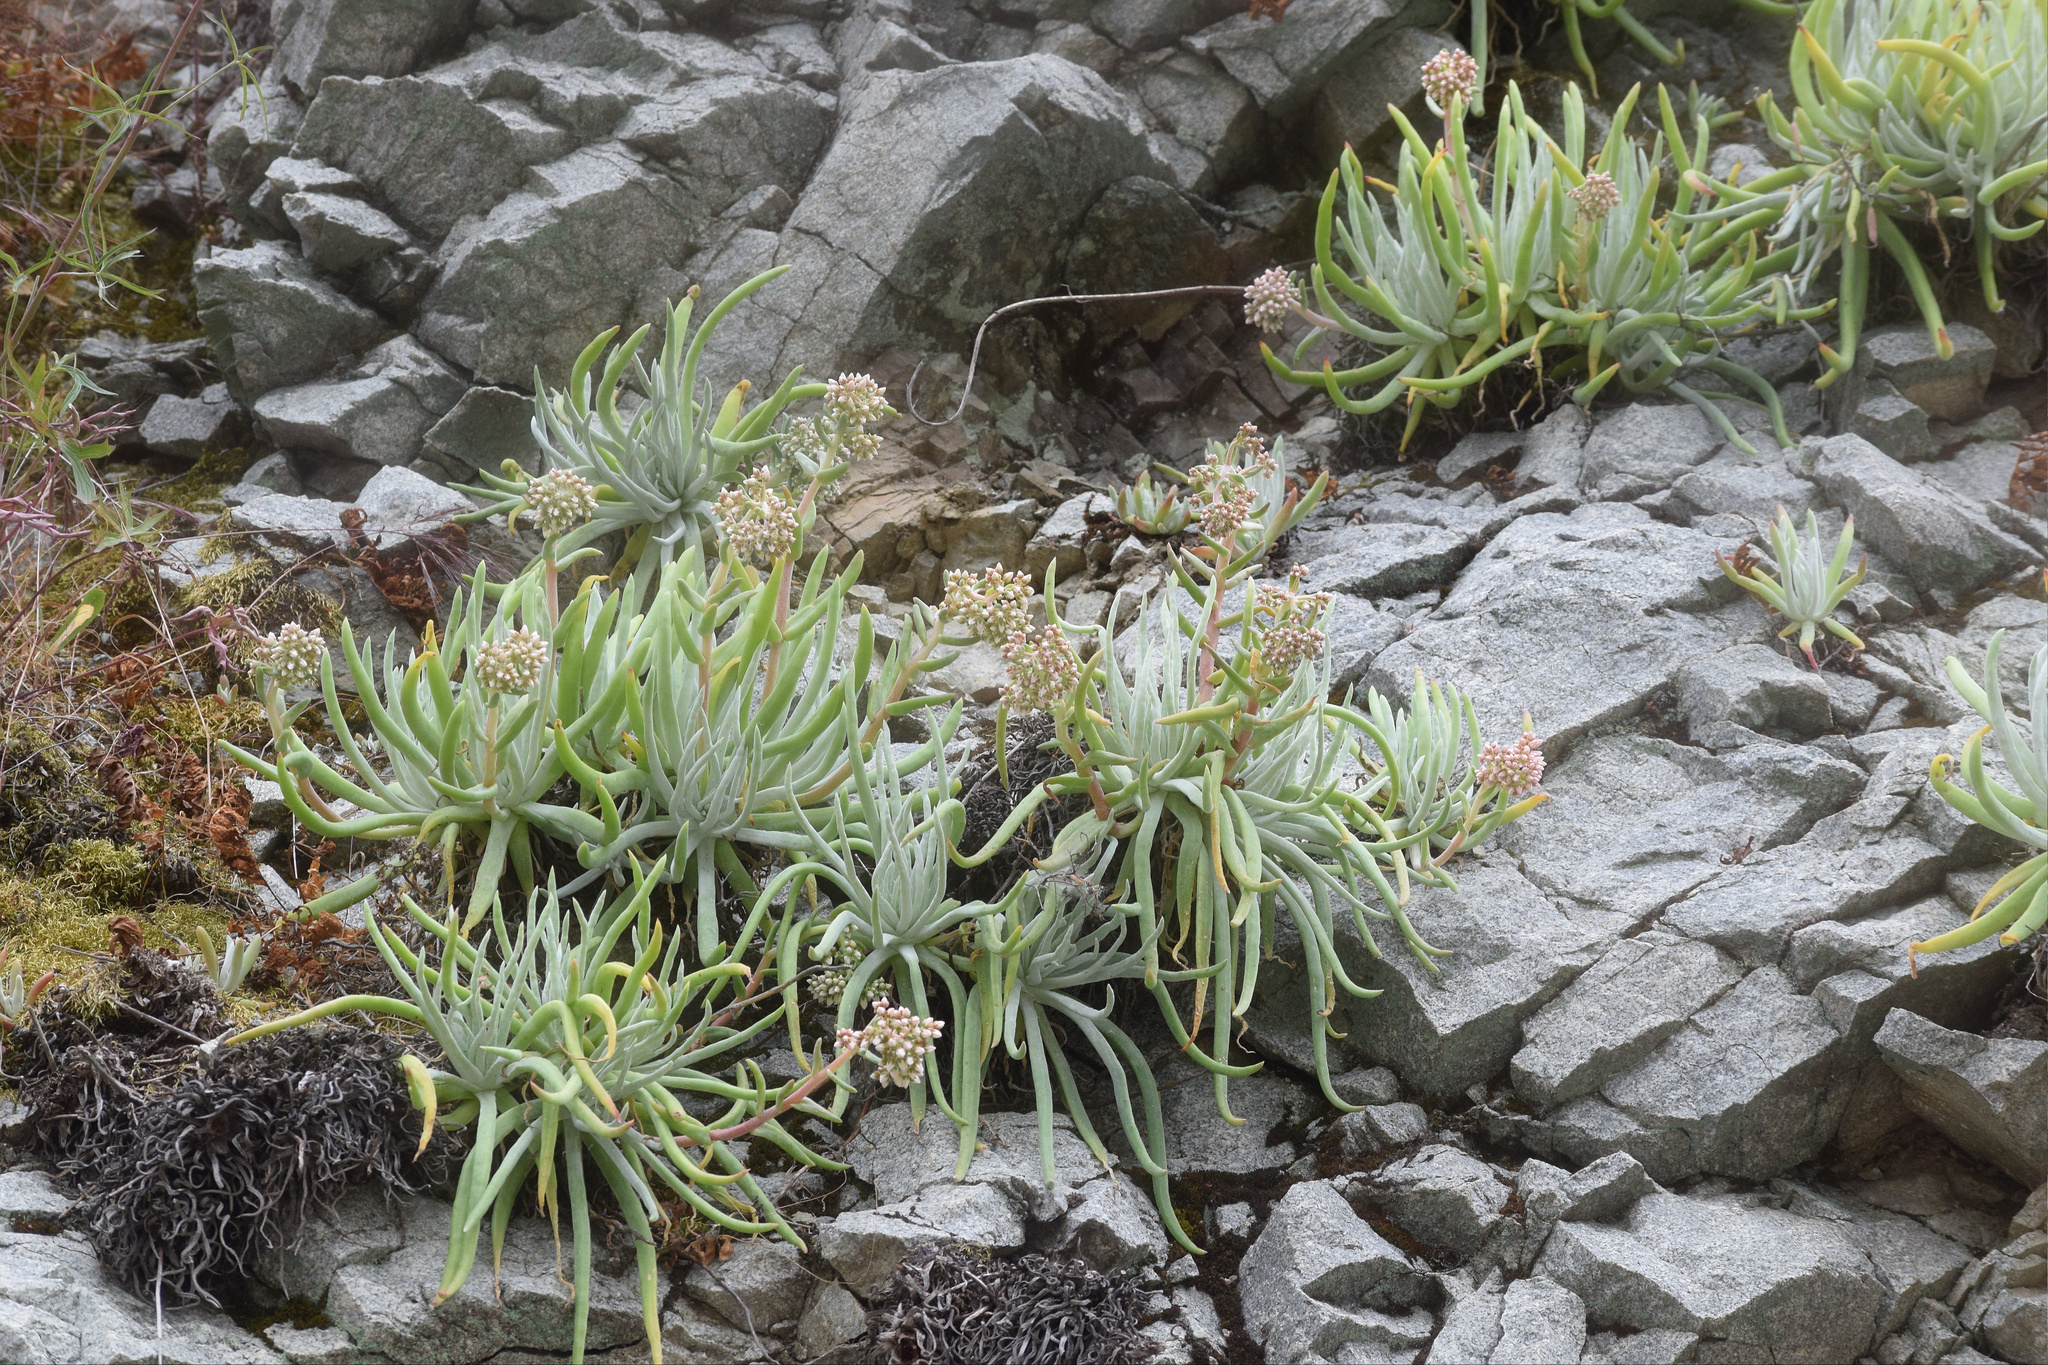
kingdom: Plantae
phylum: Tracheophyta
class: Magnoliopsida
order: Saxifragales
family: Crassulaceae
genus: Dudleya
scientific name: Dudleya densiflora
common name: San gabriel mountains dudleya
